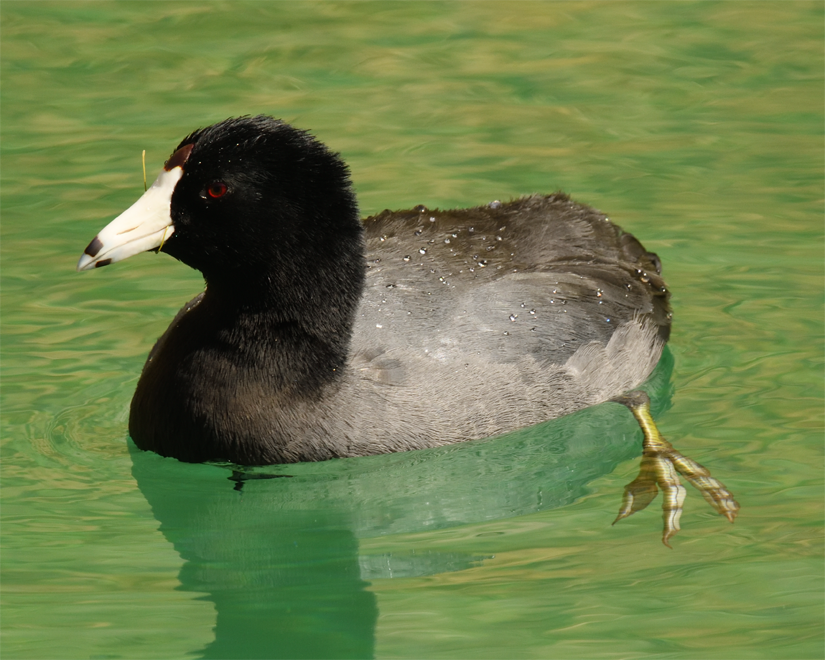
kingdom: Animalia
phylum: Chordata
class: Aves
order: Gruiformes
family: Rallidae
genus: Fulica
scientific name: Fulica americana
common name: American coot
